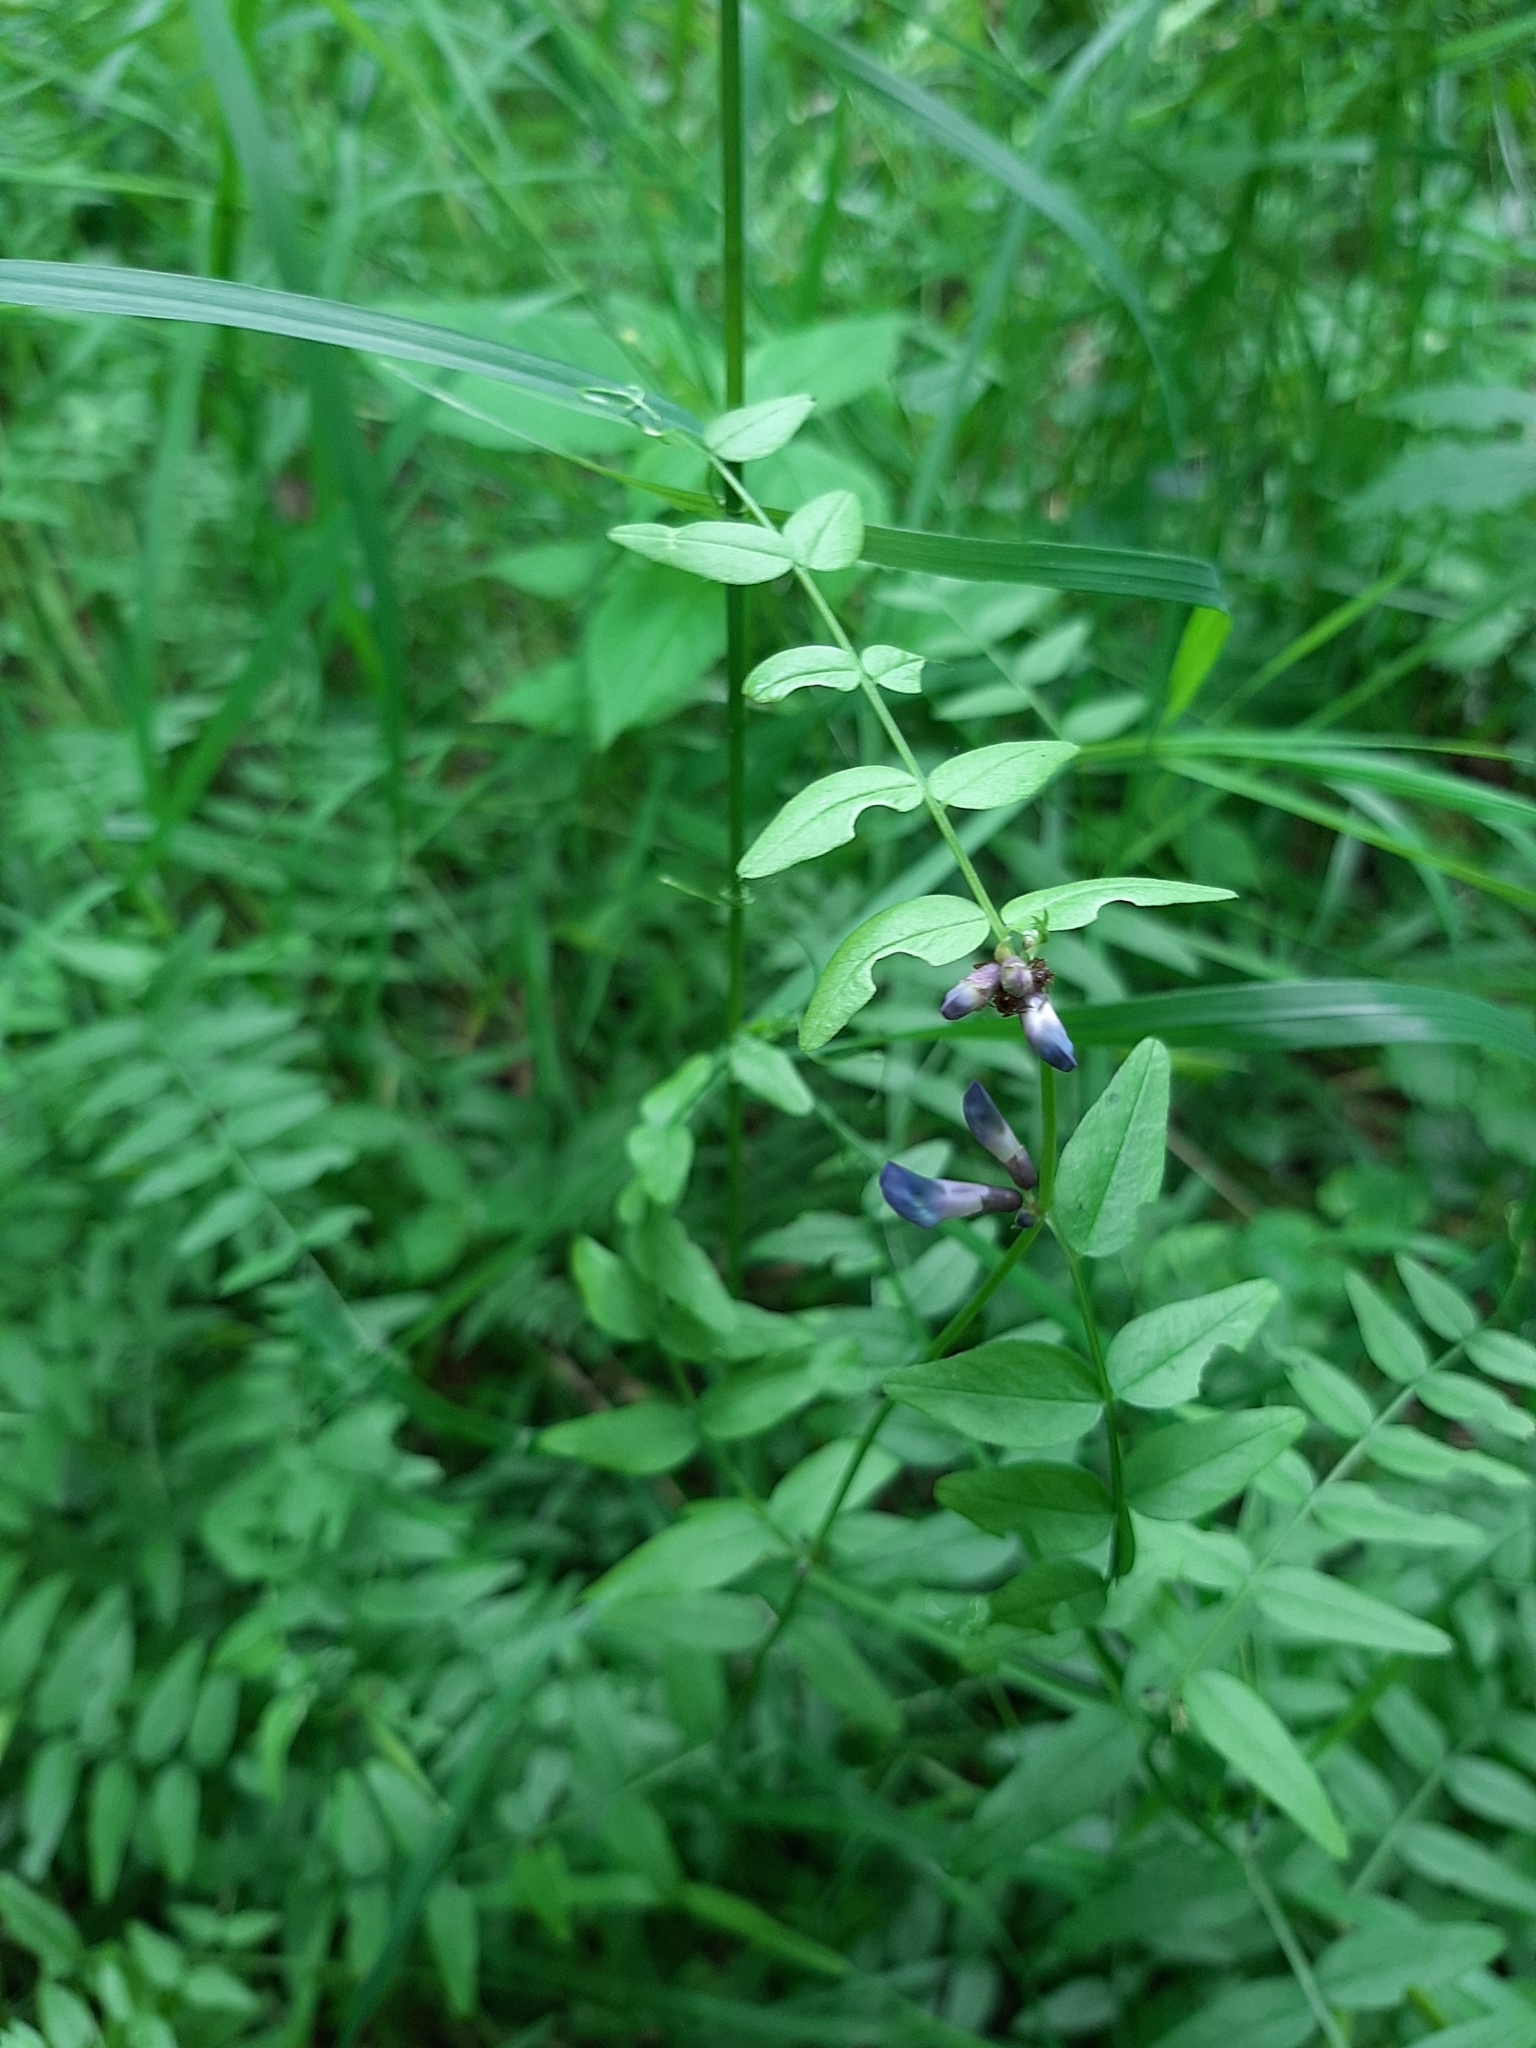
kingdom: Plantae
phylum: Tracheophyta
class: Magnoliopsida
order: Fabales
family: Fabaceae
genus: Vicia
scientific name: Vicia sepium
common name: Bush vetch
